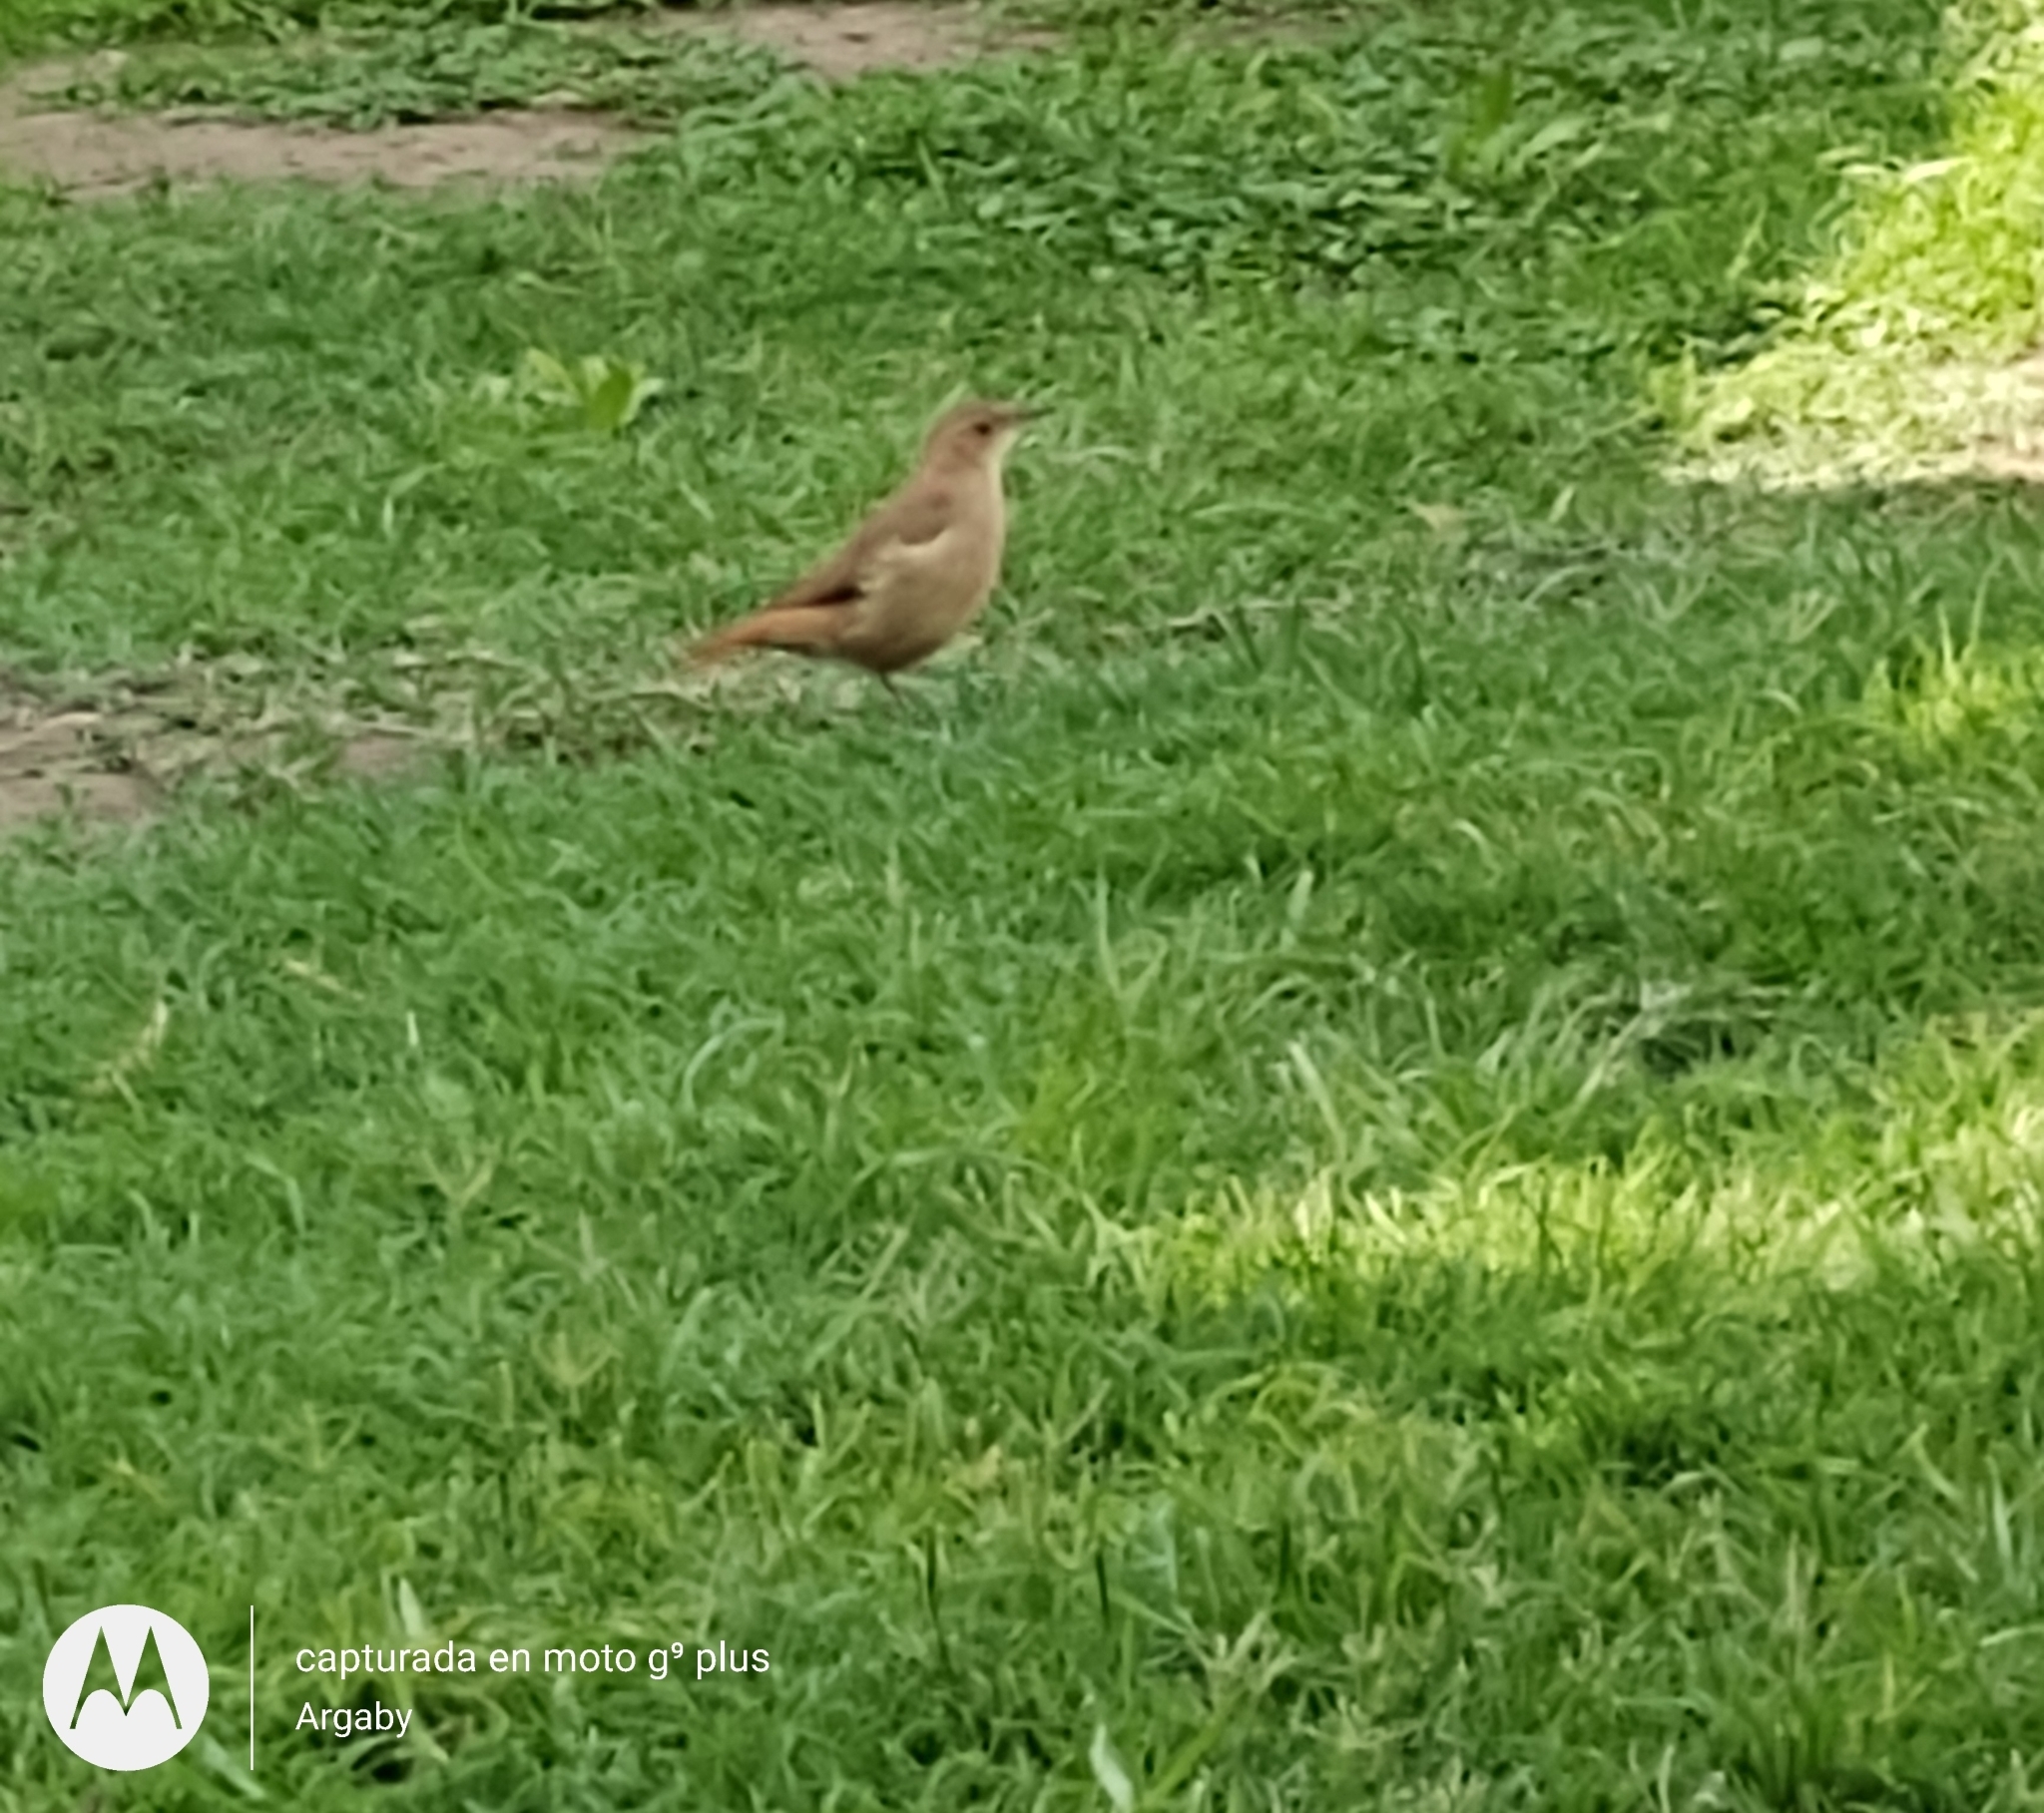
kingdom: Animalia
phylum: Chordata
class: Aves
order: Passeriformes
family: Furnariidae
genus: Furnarius
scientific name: Furnarius rufus
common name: Rufous hornero
